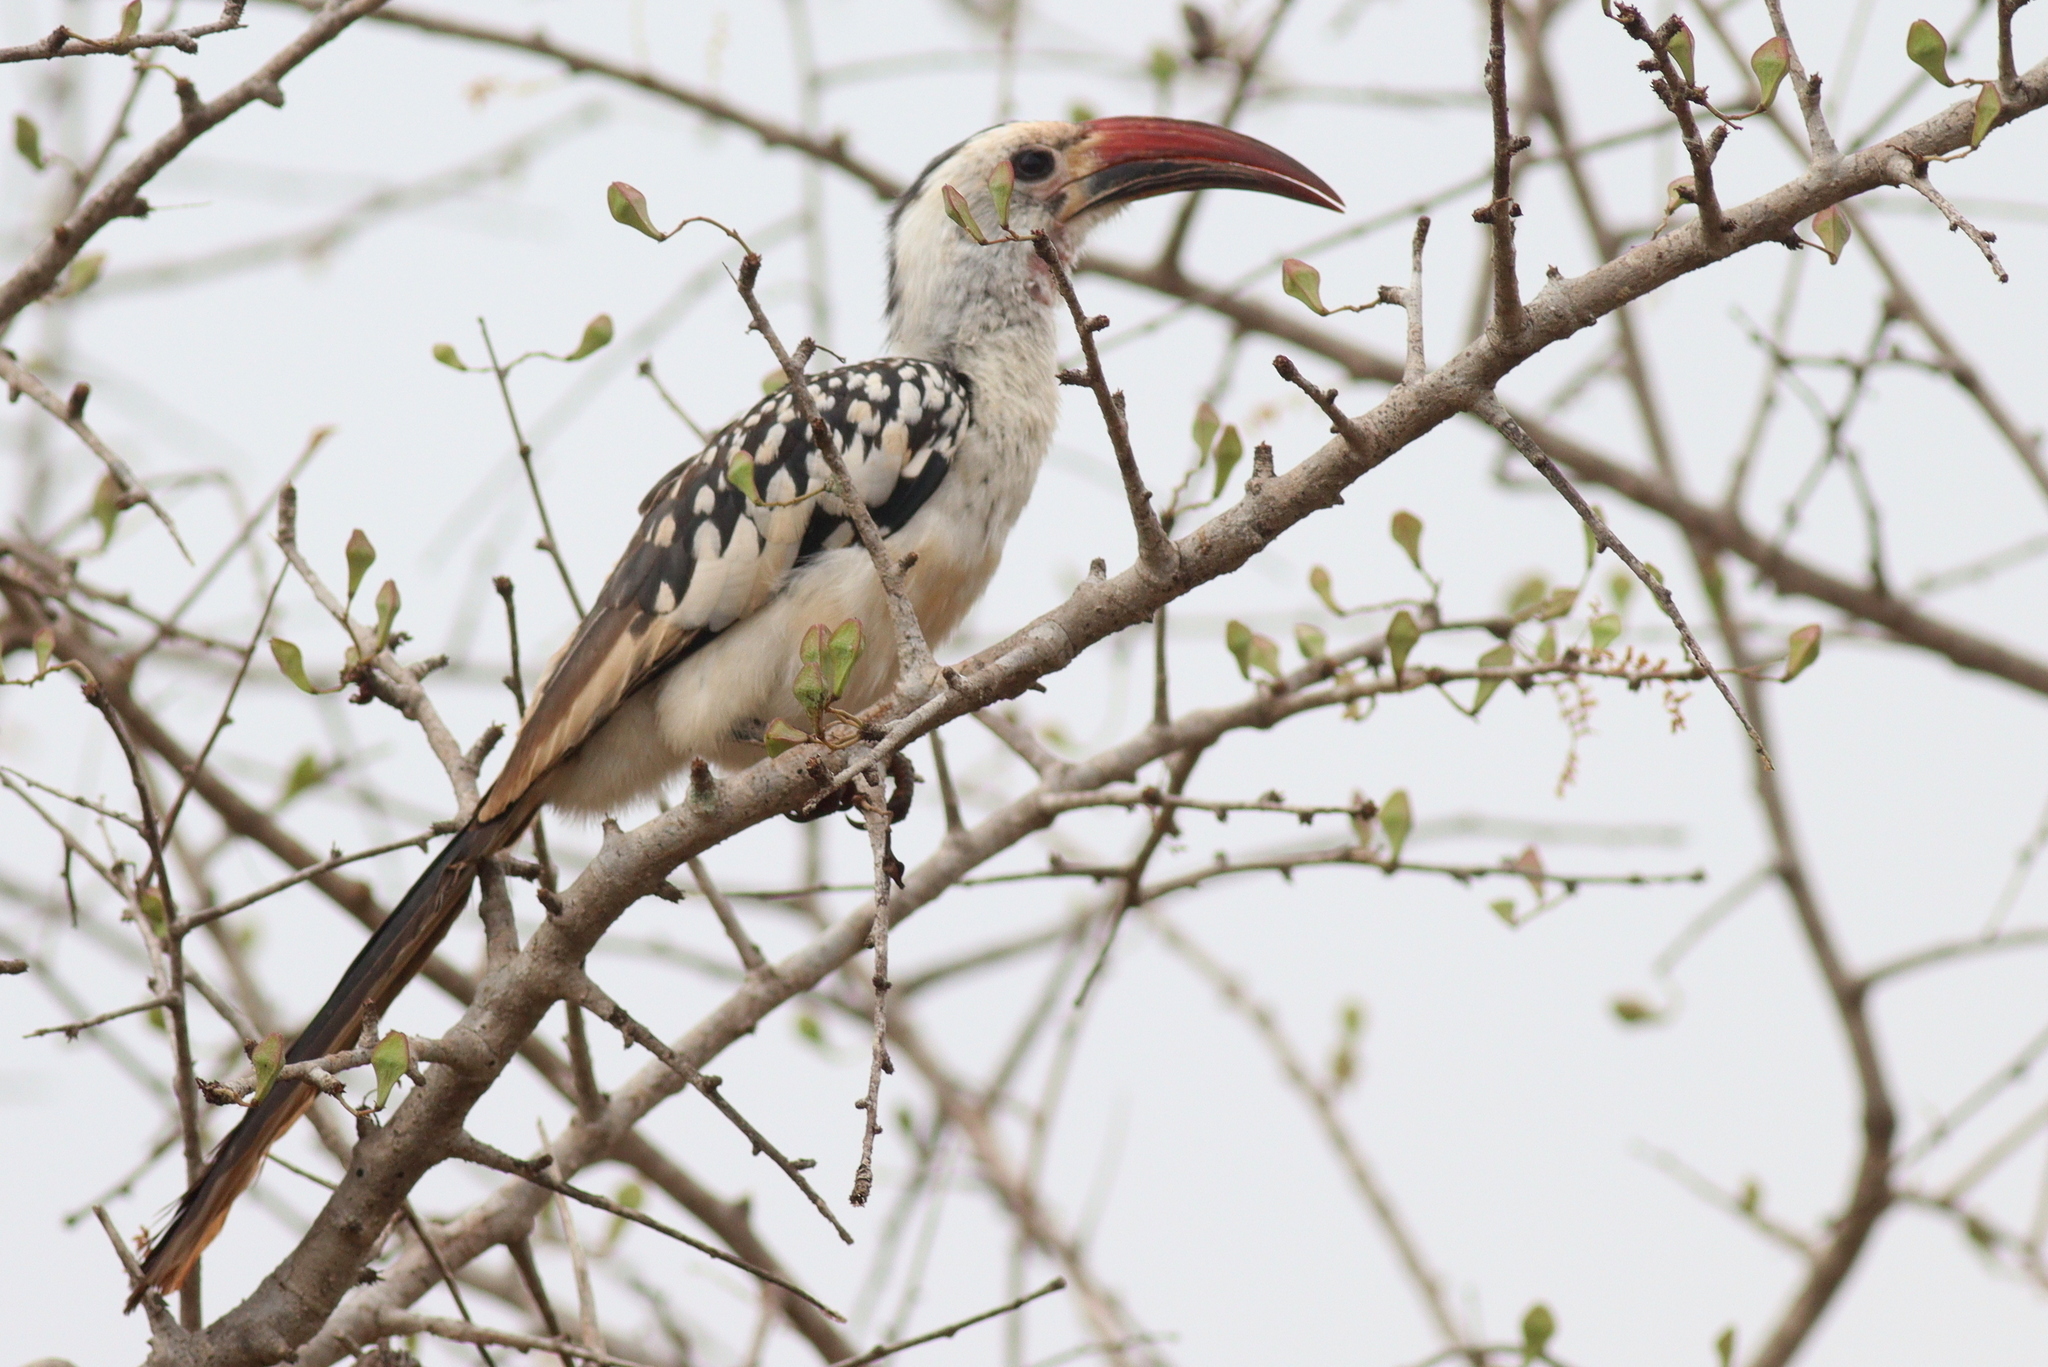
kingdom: Animalia
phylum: Chordata
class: Aves
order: Bucerotiformes
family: Bucerotidae
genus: Tockus
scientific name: Tockus erythrorhynchus
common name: Northern red-billed hornbill
